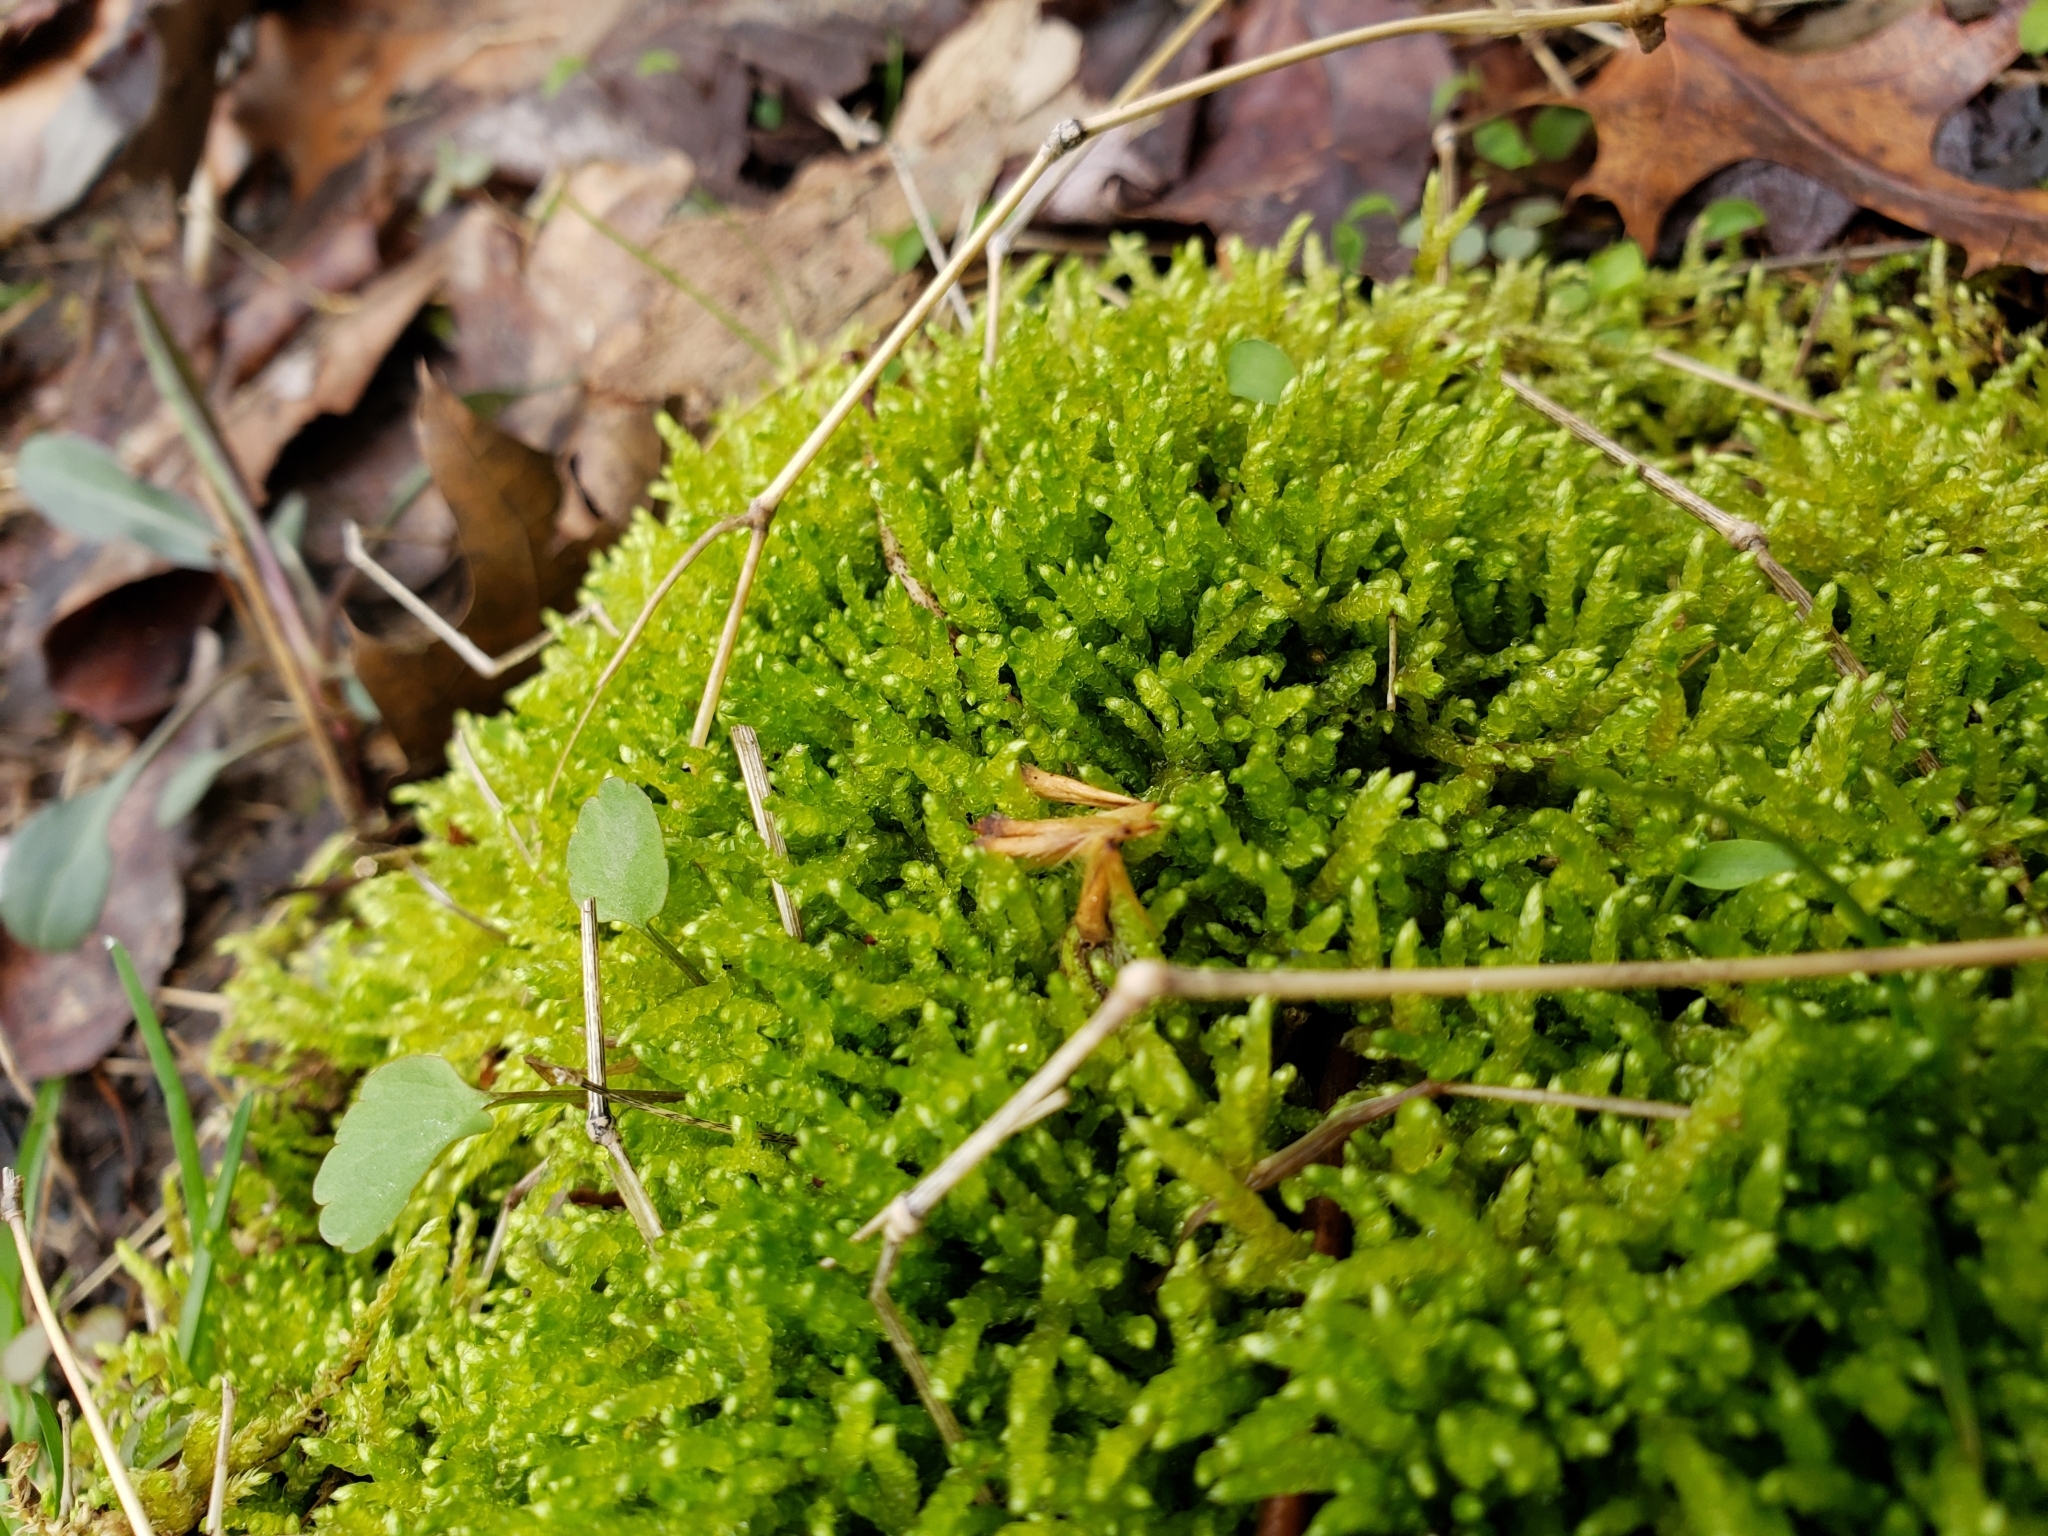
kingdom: Plantae
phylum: Bryophyta
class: Bryopsida
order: Hypnales
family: Brachytheciaceae
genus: Pseudoscleropodium
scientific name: Pseudoscleropodium purum
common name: Neat feather-moss
